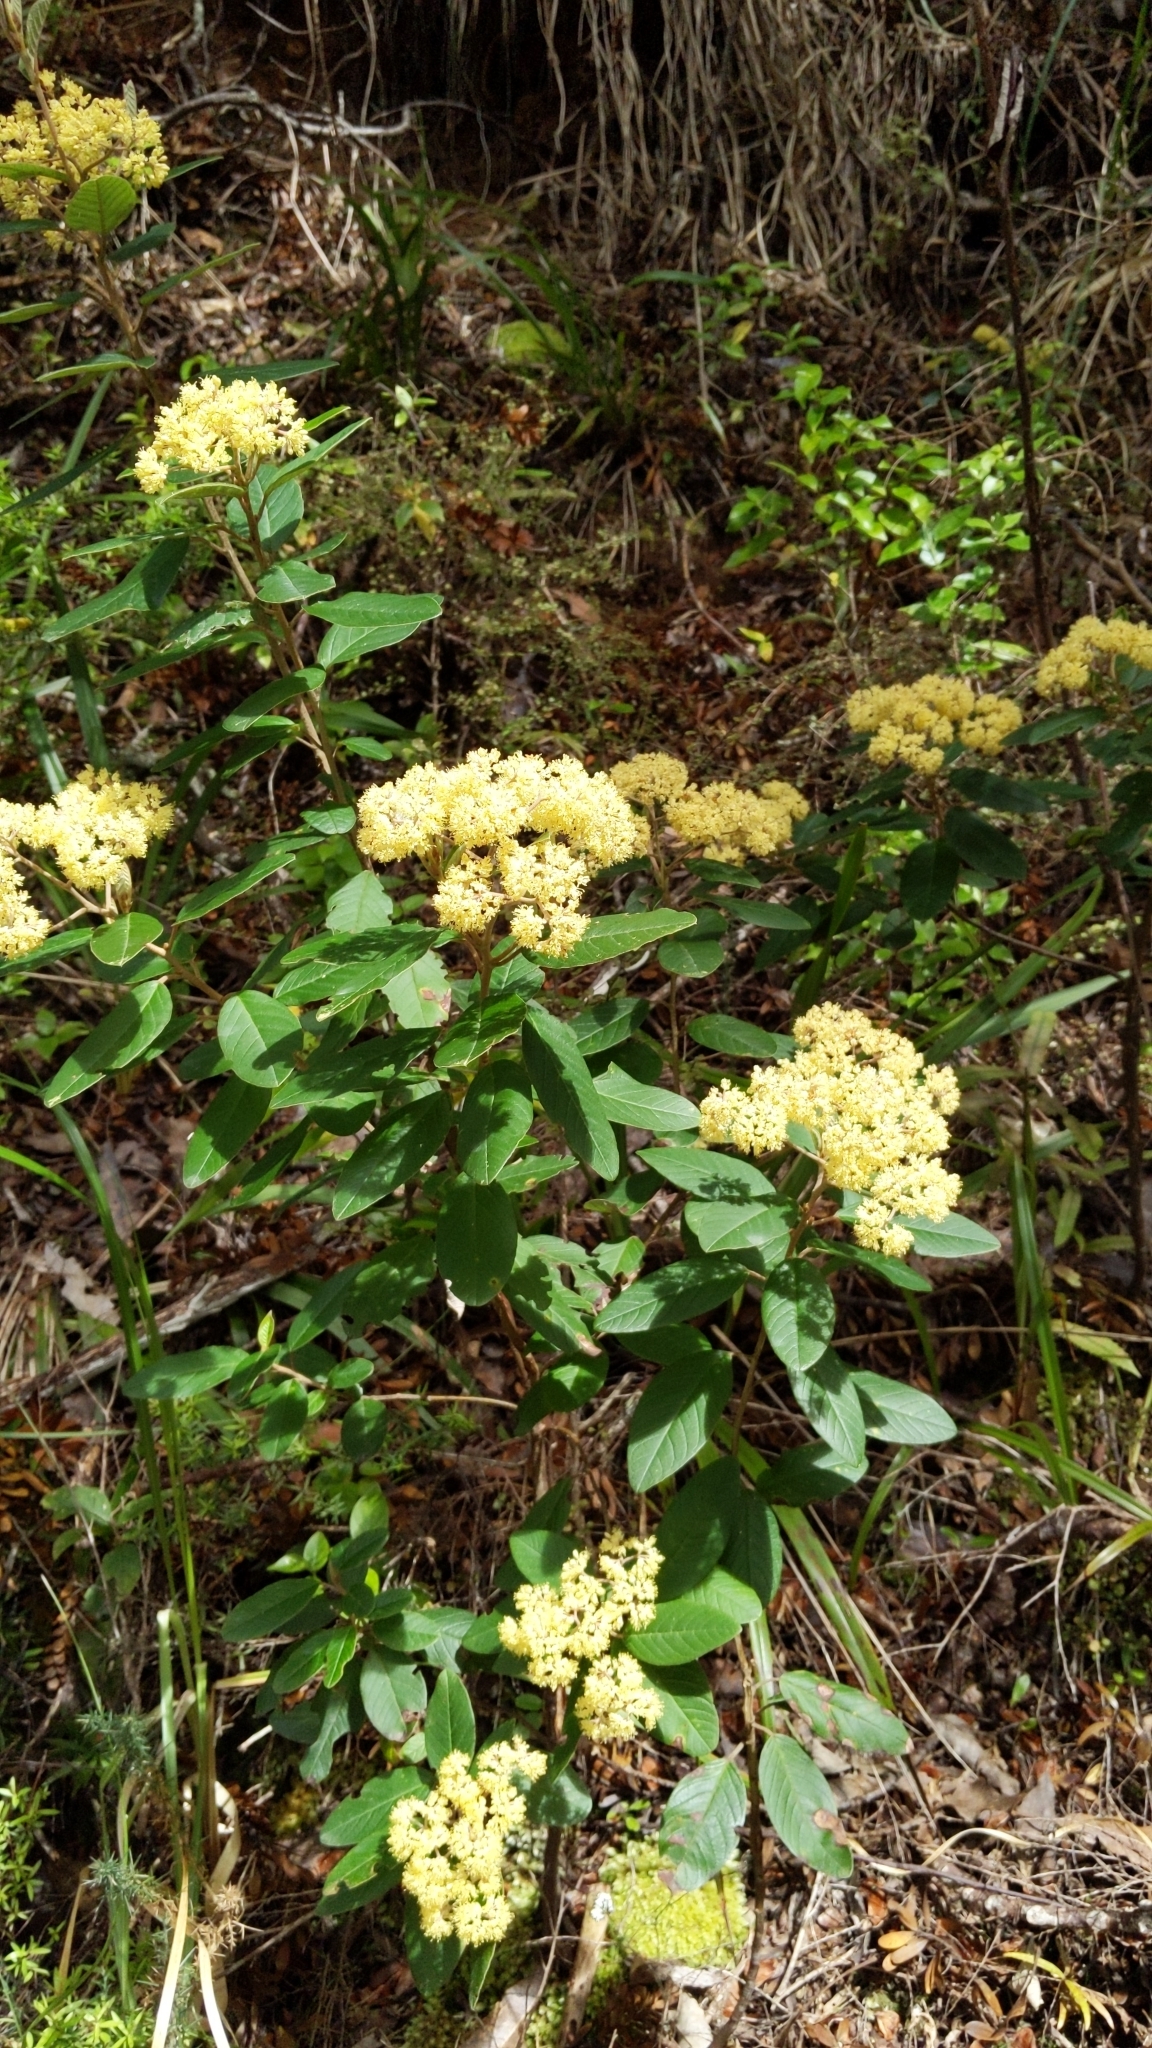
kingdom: Plantae
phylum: Tracheophyta
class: Magnoliopsida
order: Rosales
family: Rhamnaceae
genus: Pomaderris
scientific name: Pomaderris kumeraho
